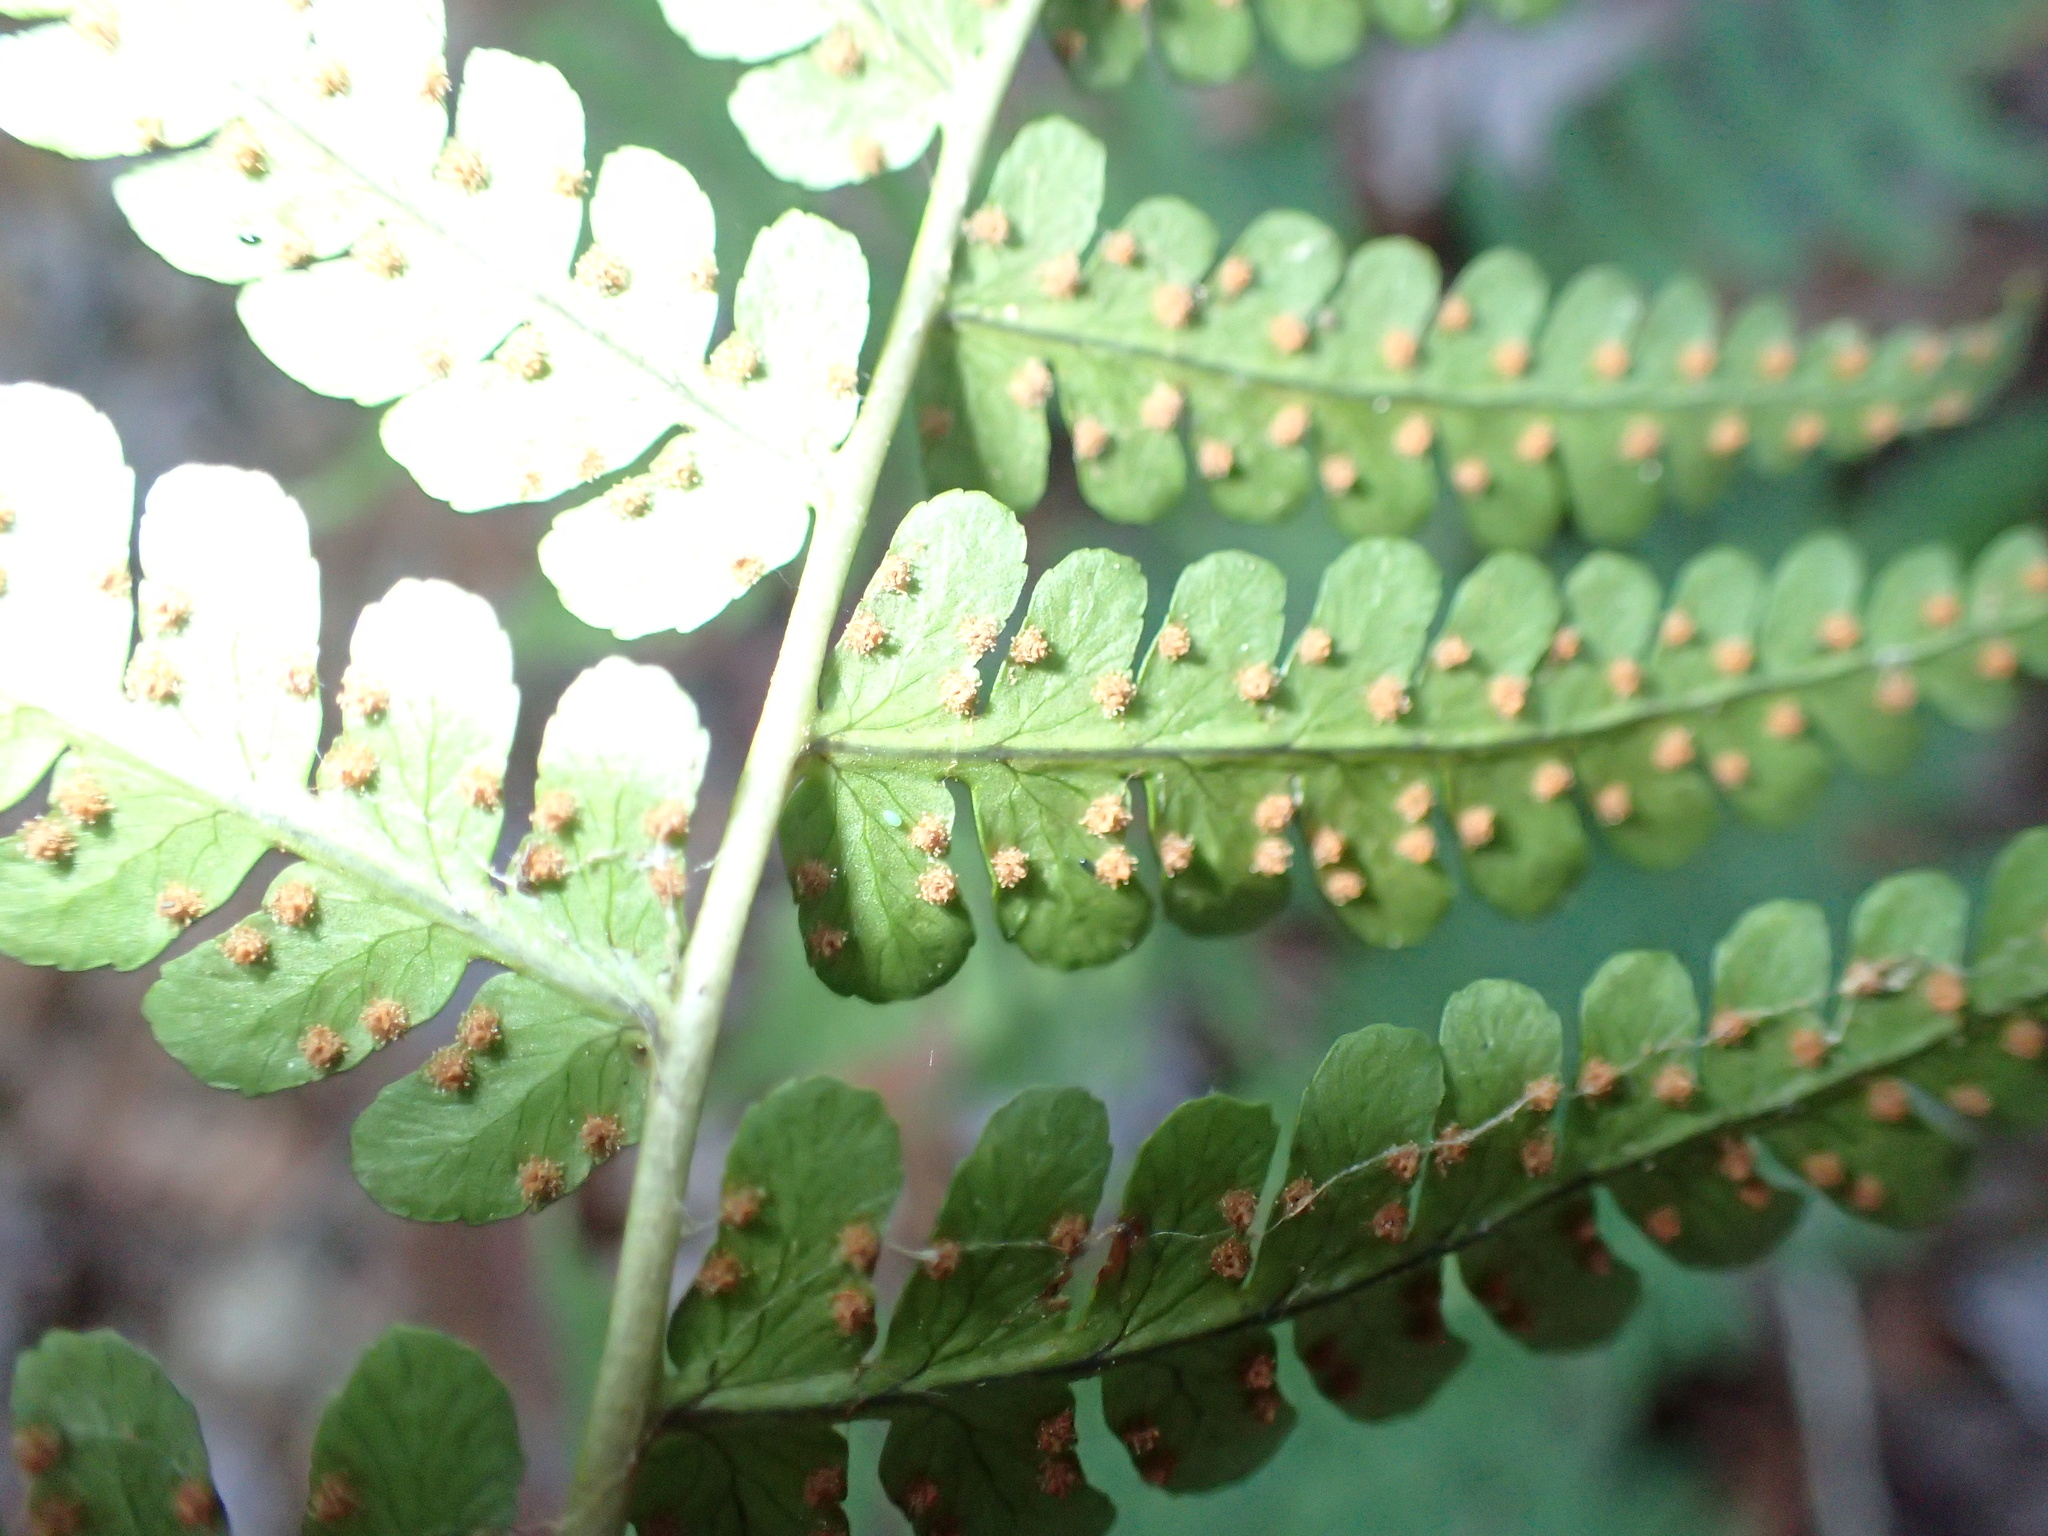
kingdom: Plantae
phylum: Tracheophyta
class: Polypodiopsida
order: Polypodiales
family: Dryopteridaceae
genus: Dryopteris
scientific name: Dryopteris marginalis
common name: Marginal wood fern
